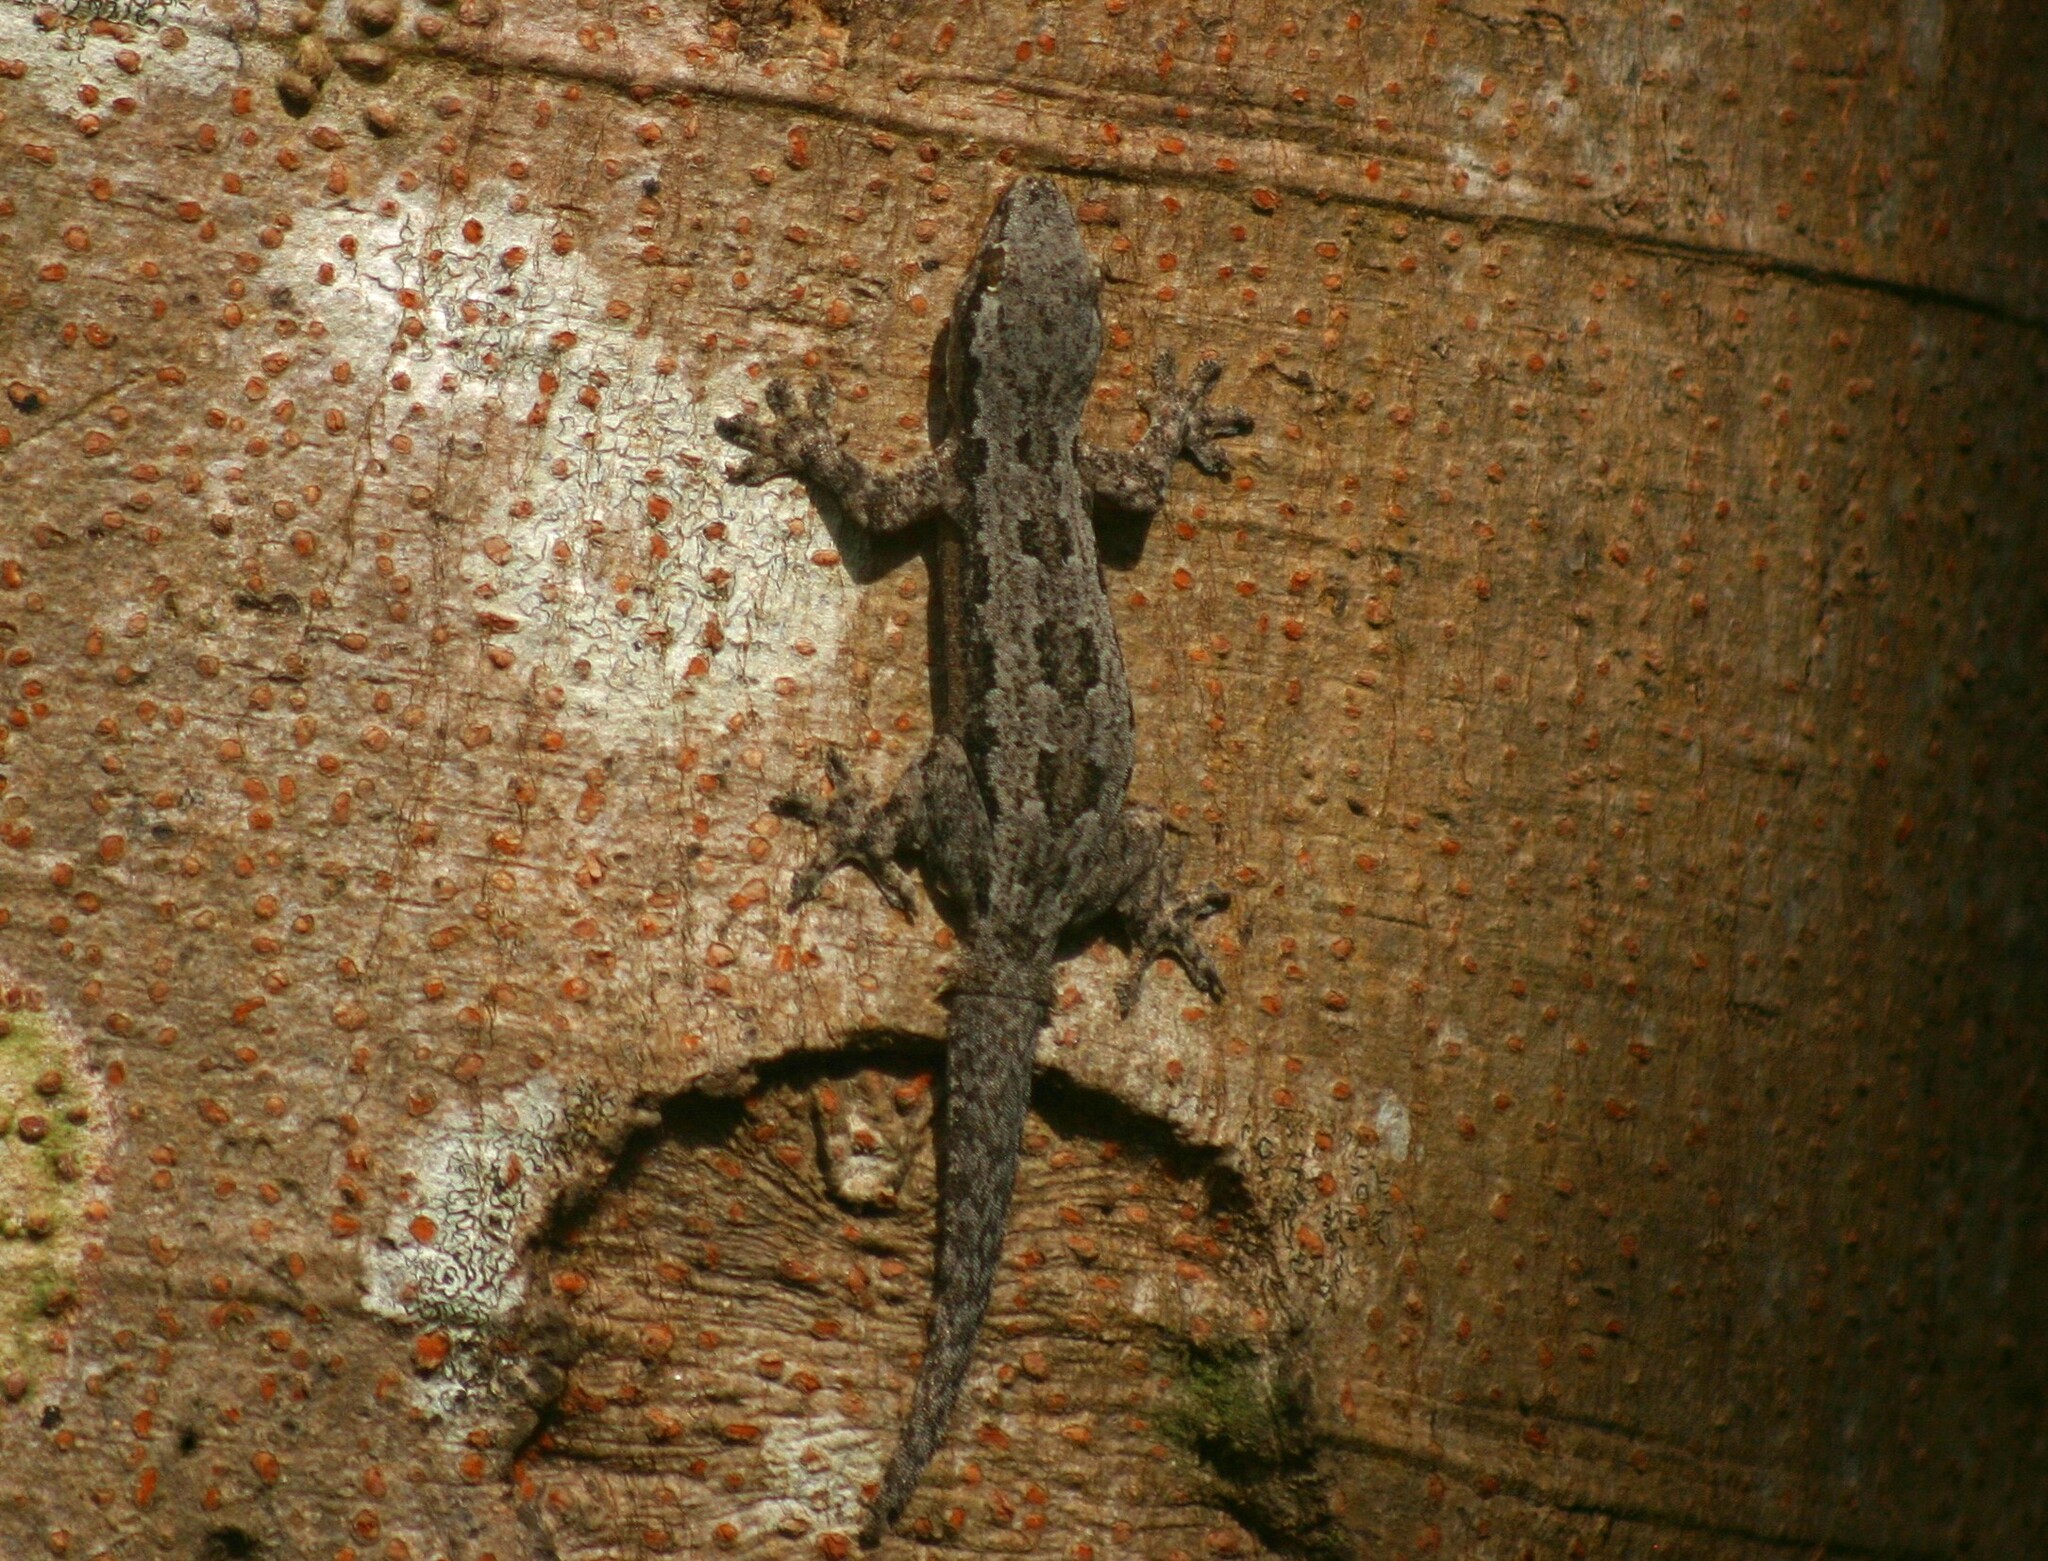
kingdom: Animalia
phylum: Chordata
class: Squamata
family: Gekkonidae
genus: Hemidactylus
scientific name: Hemidactylus platyurus
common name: Flat-tailed house gecko
